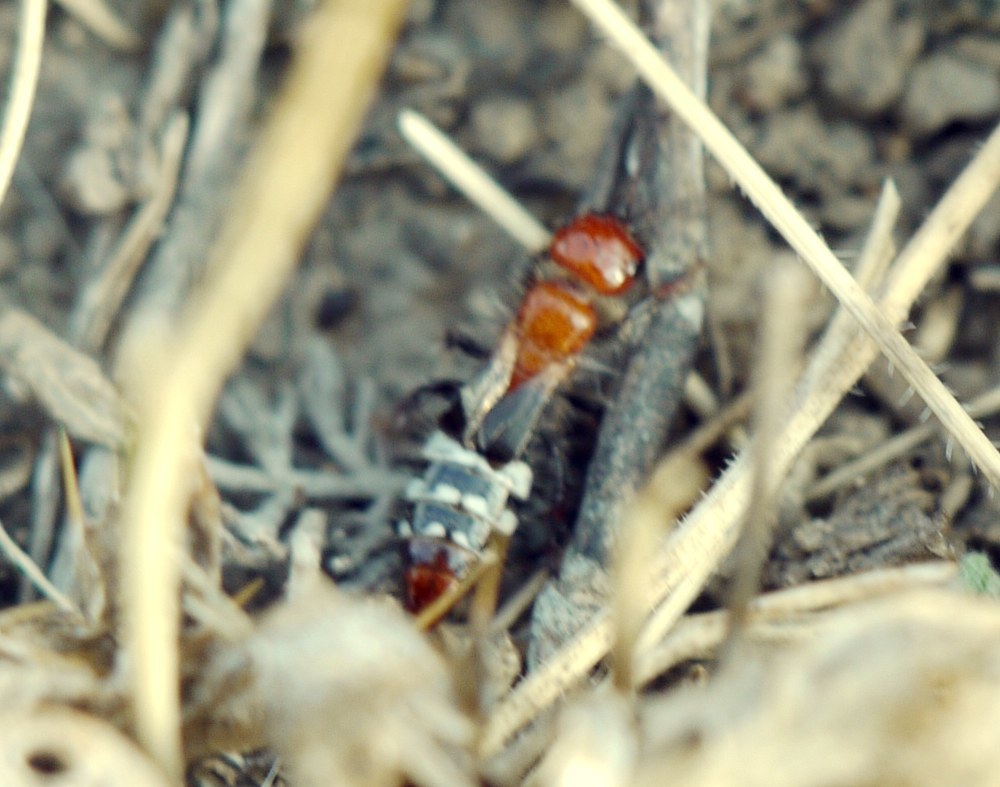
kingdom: Animalia
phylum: Arthropoda
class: Insecta
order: Hymenoptera
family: Tiphiidae
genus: Meria
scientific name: Meria geniculata
